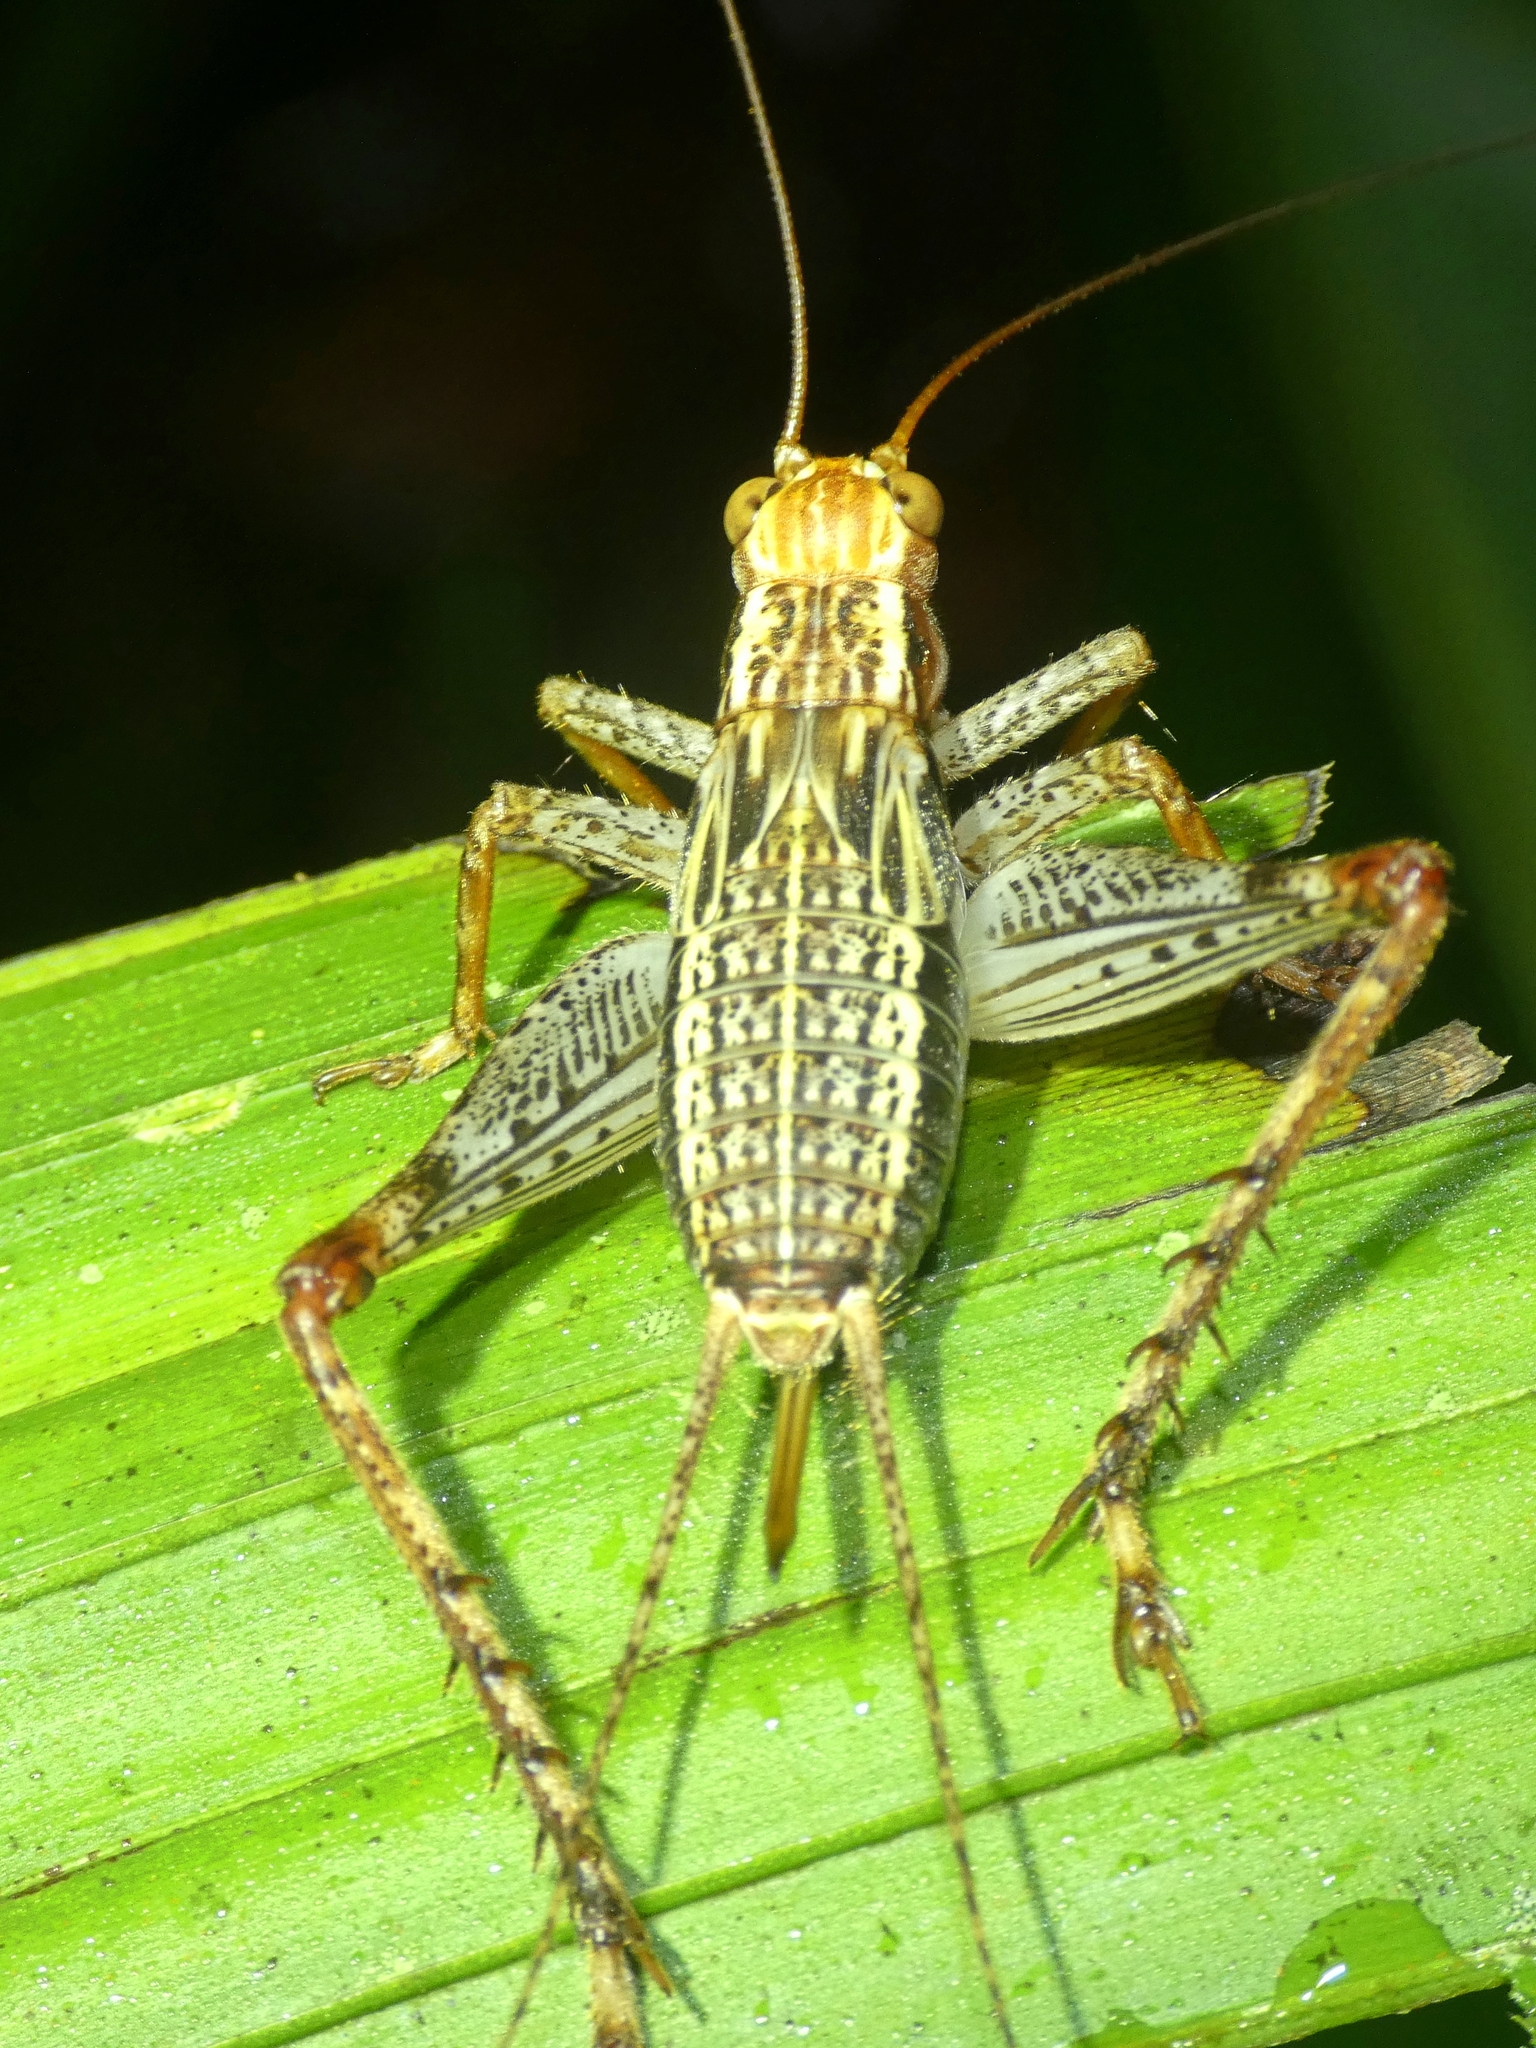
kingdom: Animalia
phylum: Arthropoda
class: Insecta
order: Orthoptera
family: Gryllidae
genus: Cardiodactylus
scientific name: Cardiodactylus novaeguineae
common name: Sad cricket
